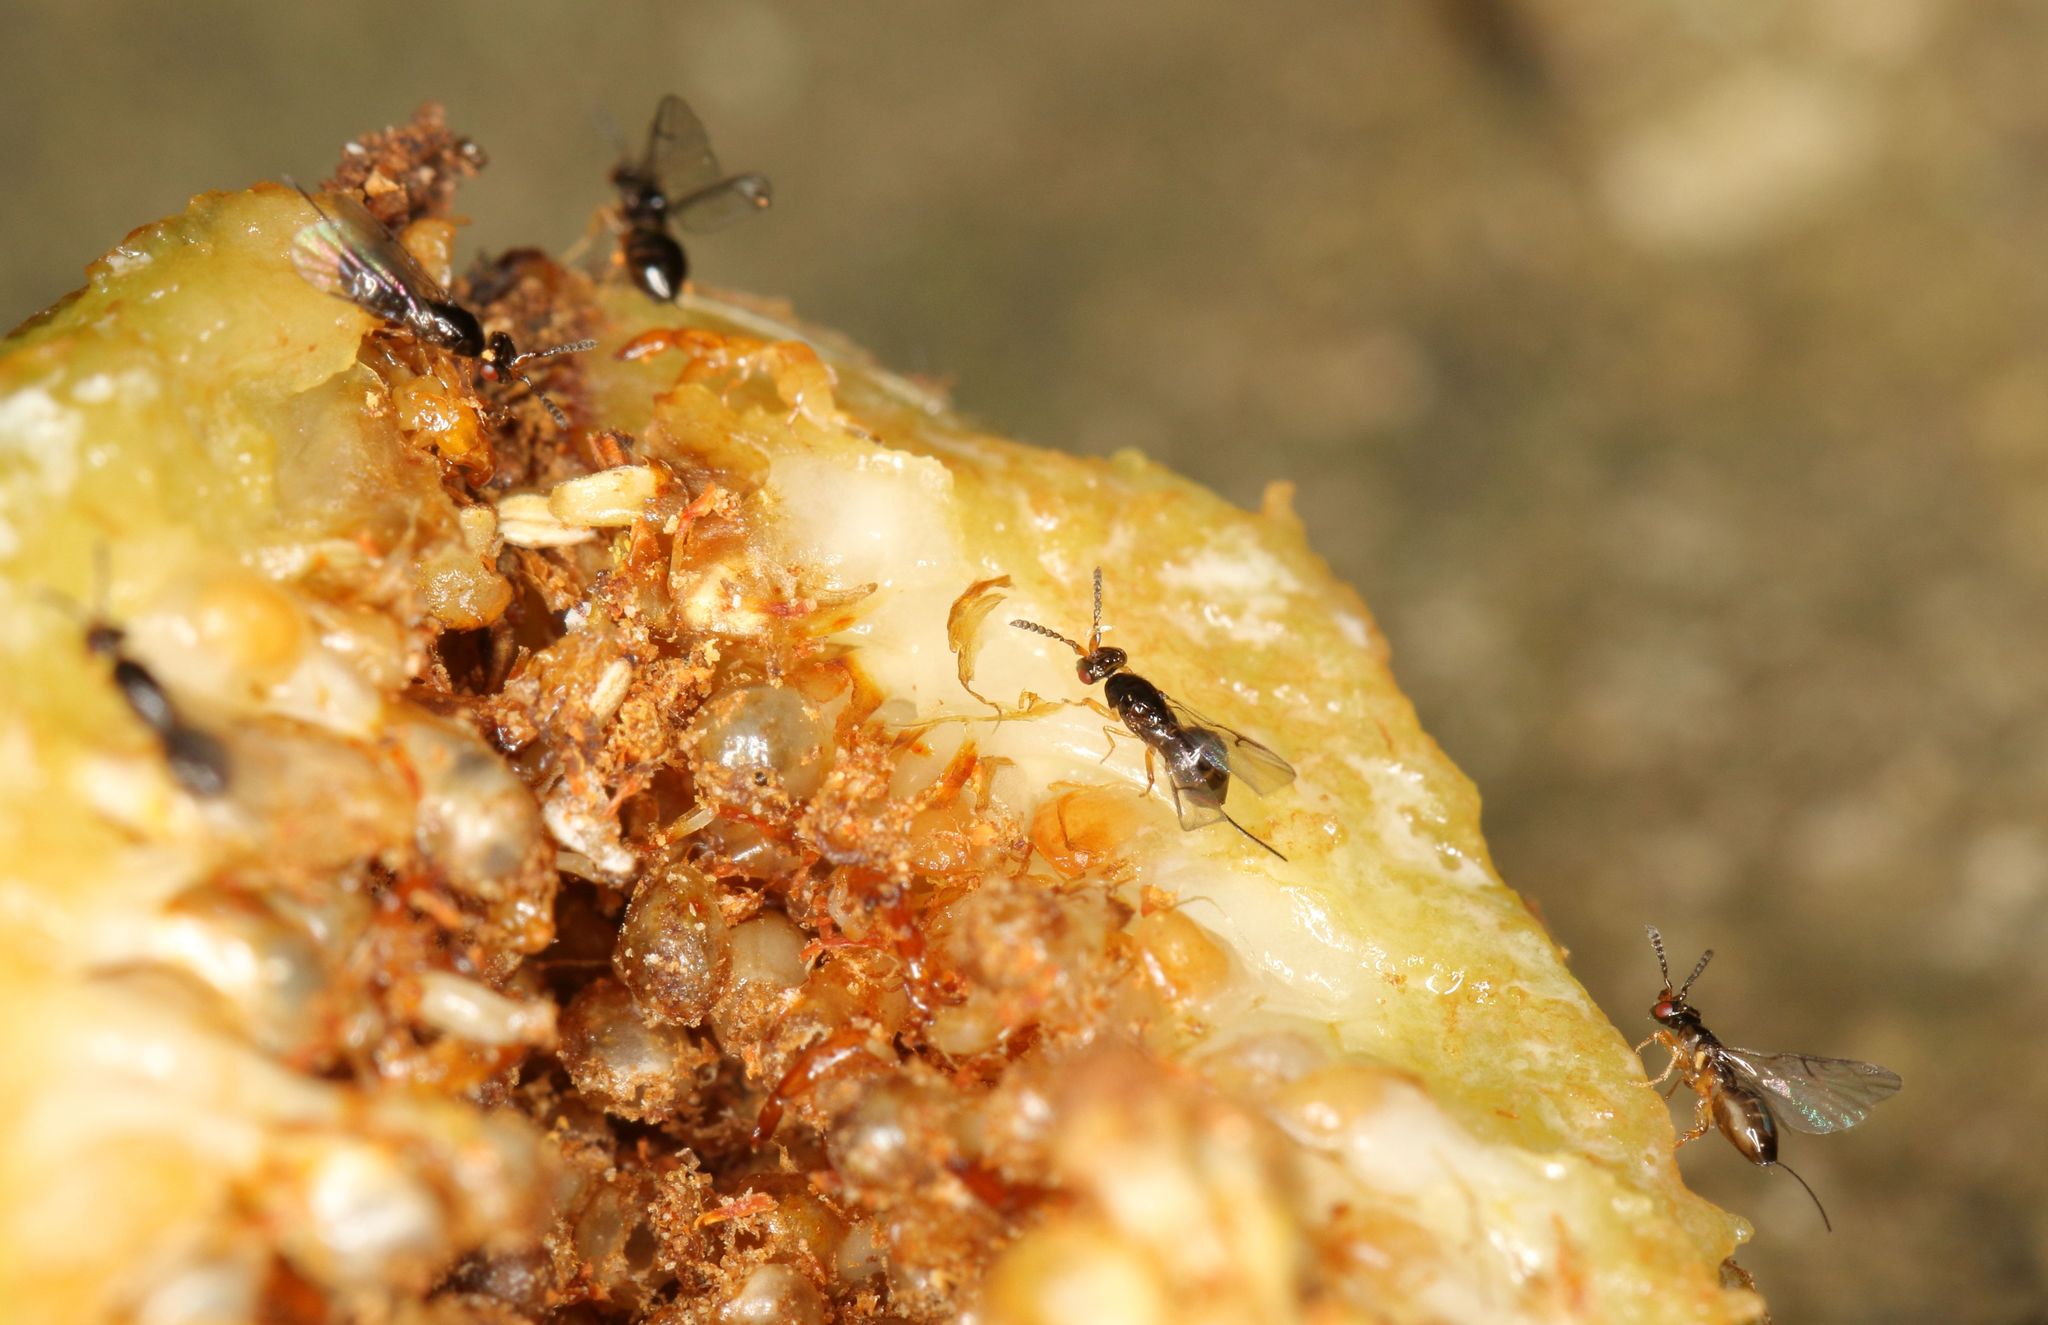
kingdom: Animalia
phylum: Arthropoda
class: Insecta
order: Hymenoptera
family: Agaonidae
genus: Ceratosolen
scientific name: Ceratosolen capensis
